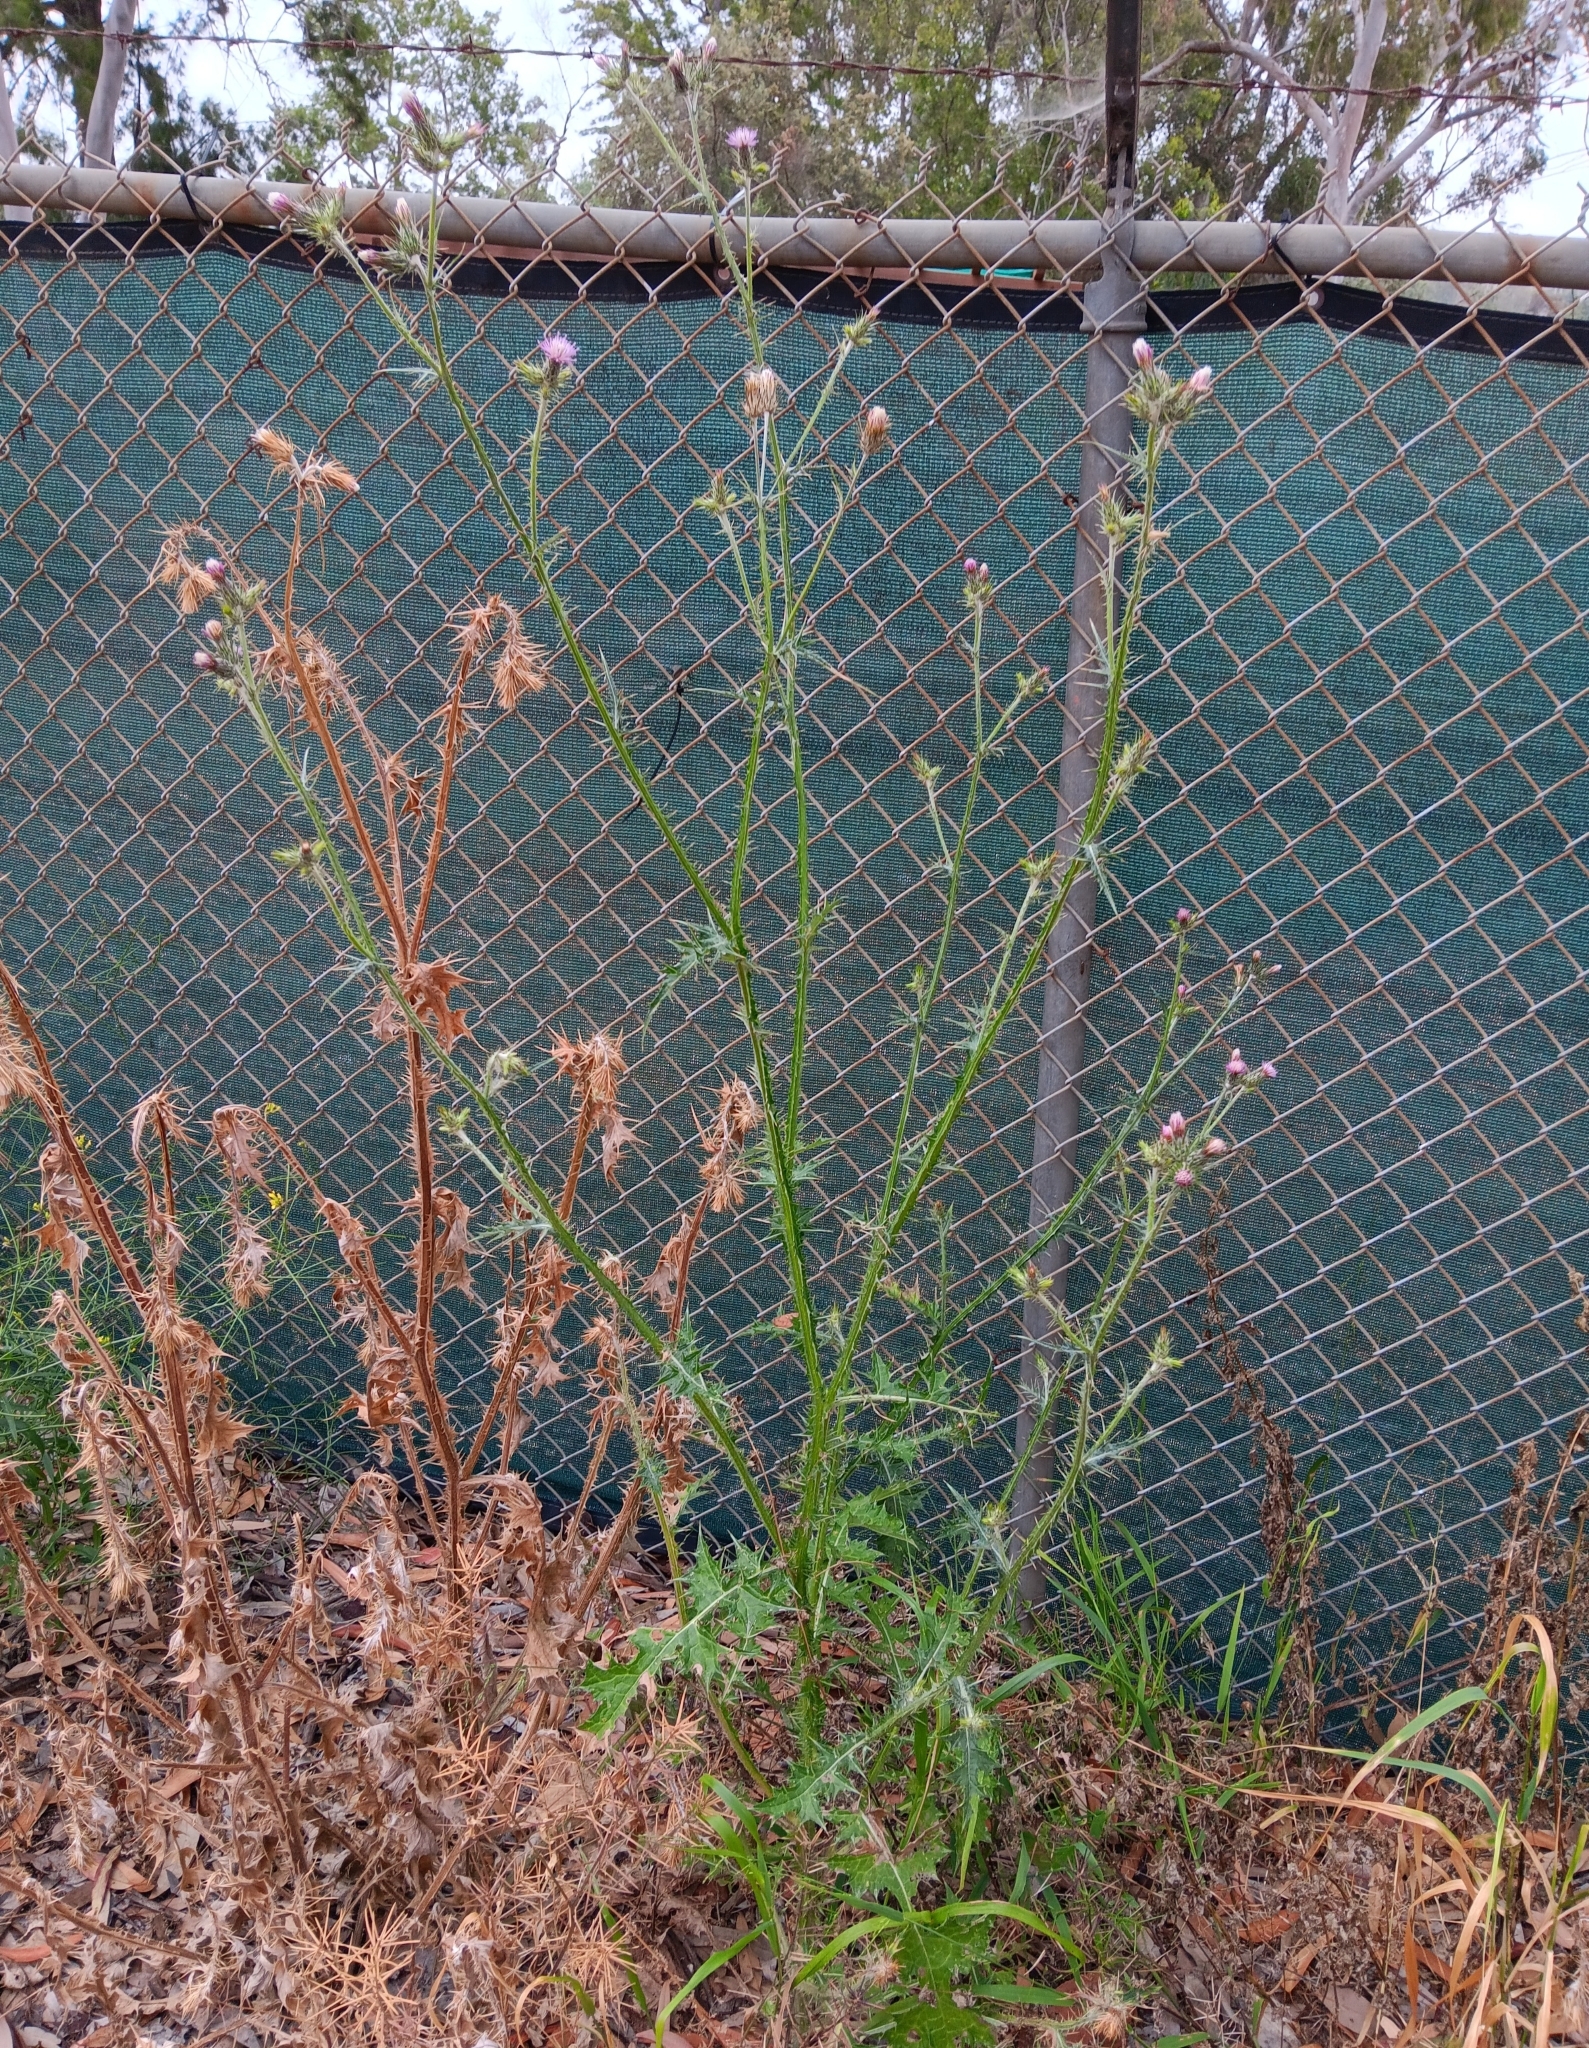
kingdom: Plantae
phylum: Tracheophyta
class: Magnoliopsida
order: Asterales
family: Asteraceae
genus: Carduus
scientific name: Carduus pycnocephalus
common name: Plymouth thistle
